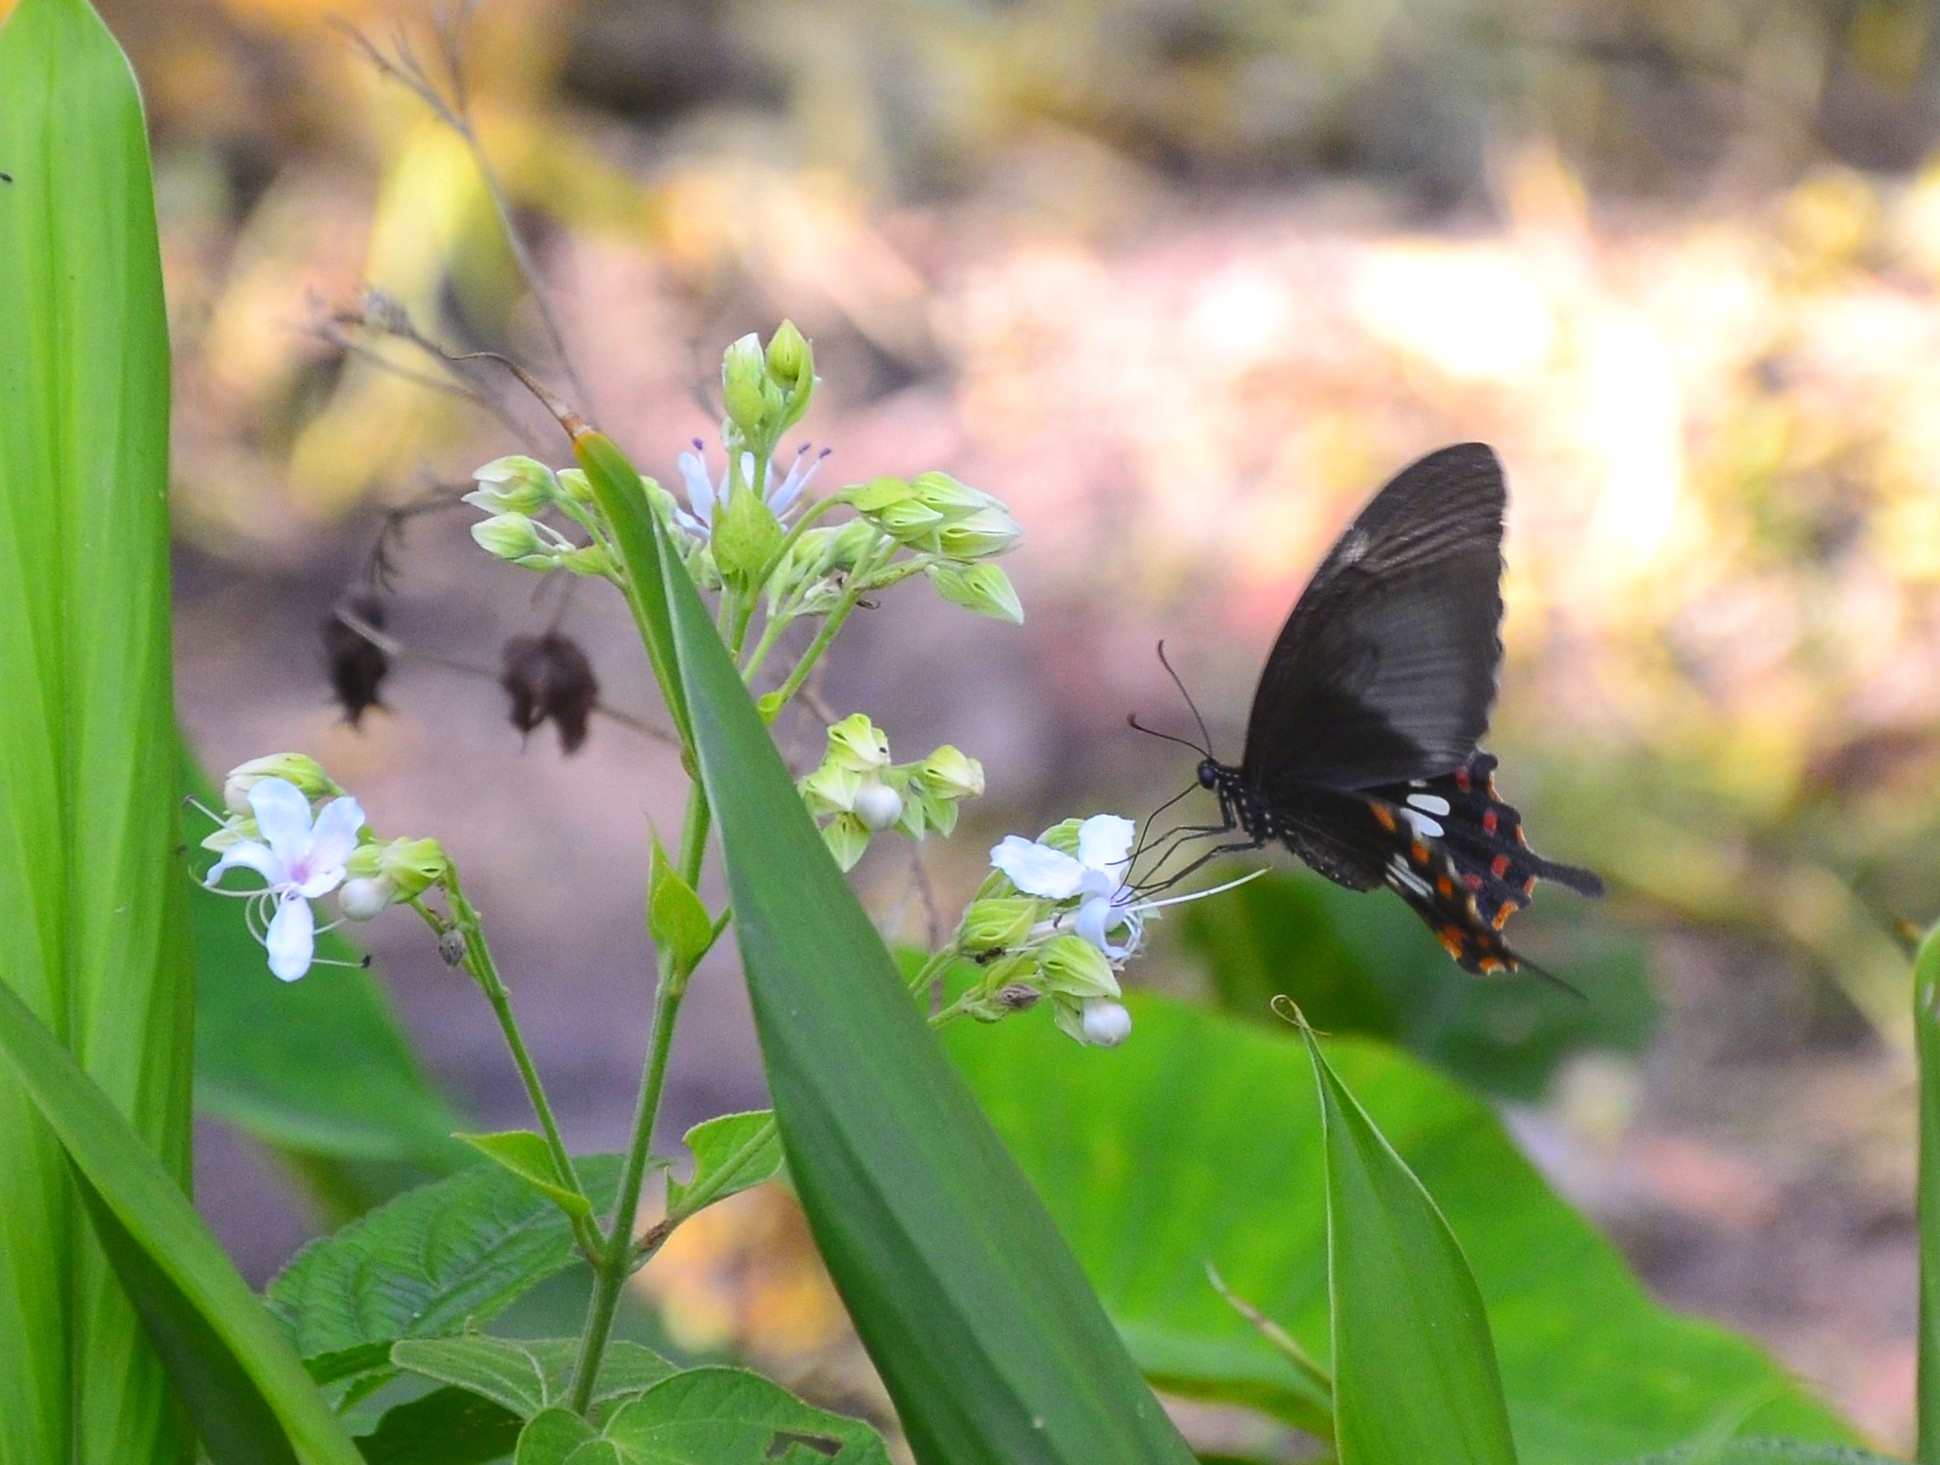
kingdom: Animalia
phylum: Arthropoda
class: Insecta
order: Lepidoptera
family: Papilionidae
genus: Papilio
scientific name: Papilio polytes
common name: Common mormon
